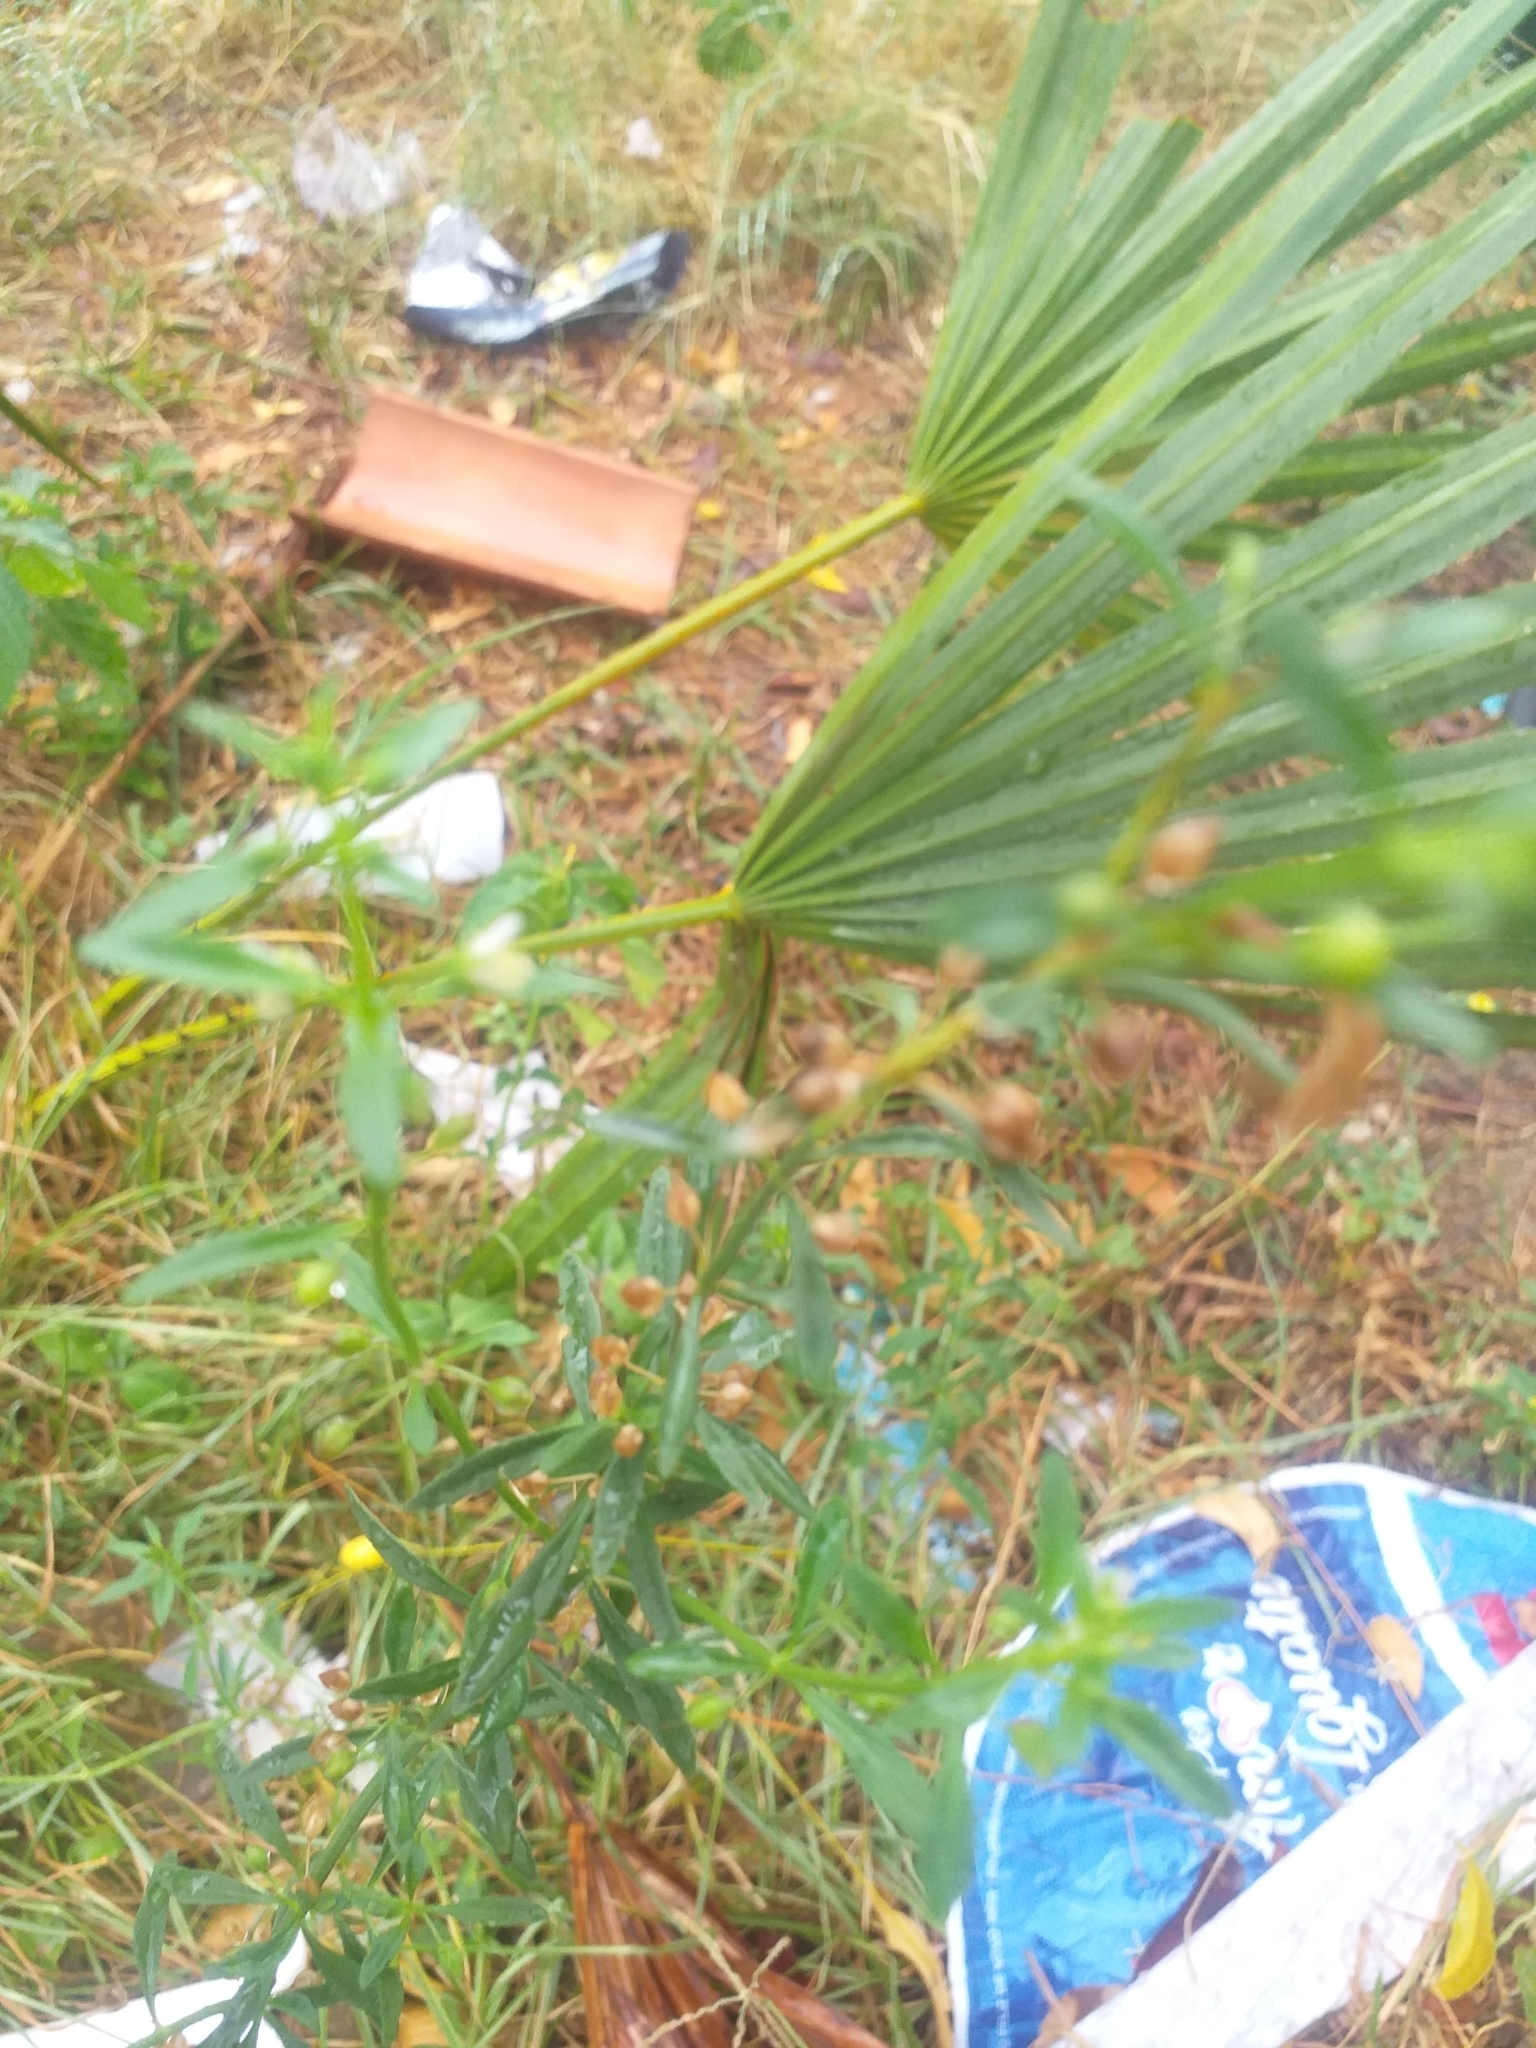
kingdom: Plantae
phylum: Tracheophyta
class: Magnoliopsida
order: Lamiales
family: Plantaginaceae
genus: Scoparia
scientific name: Scoparia dulcis
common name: Scoparia-weed
